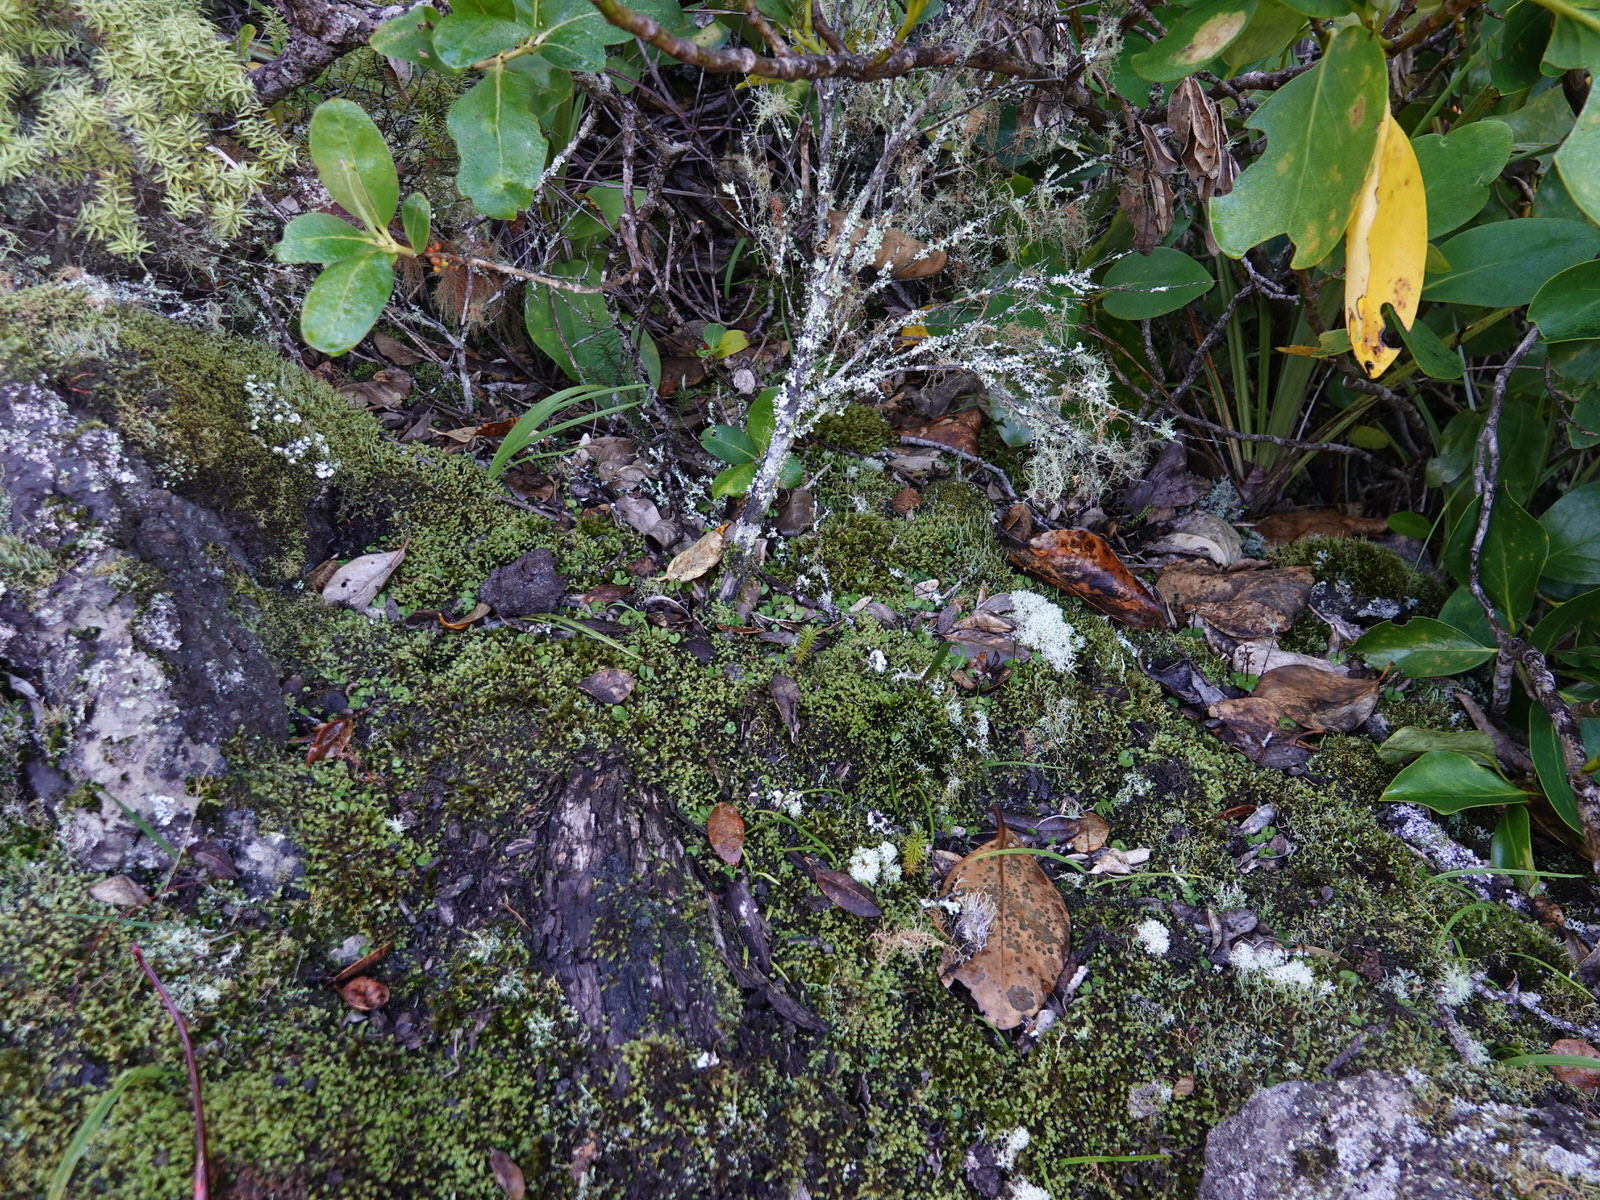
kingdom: Plantae
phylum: Tracheophyta
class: Liliopsida
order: Asparagales
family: Orchidaceae
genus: Acianthus
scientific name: Acianthus sinclairii
